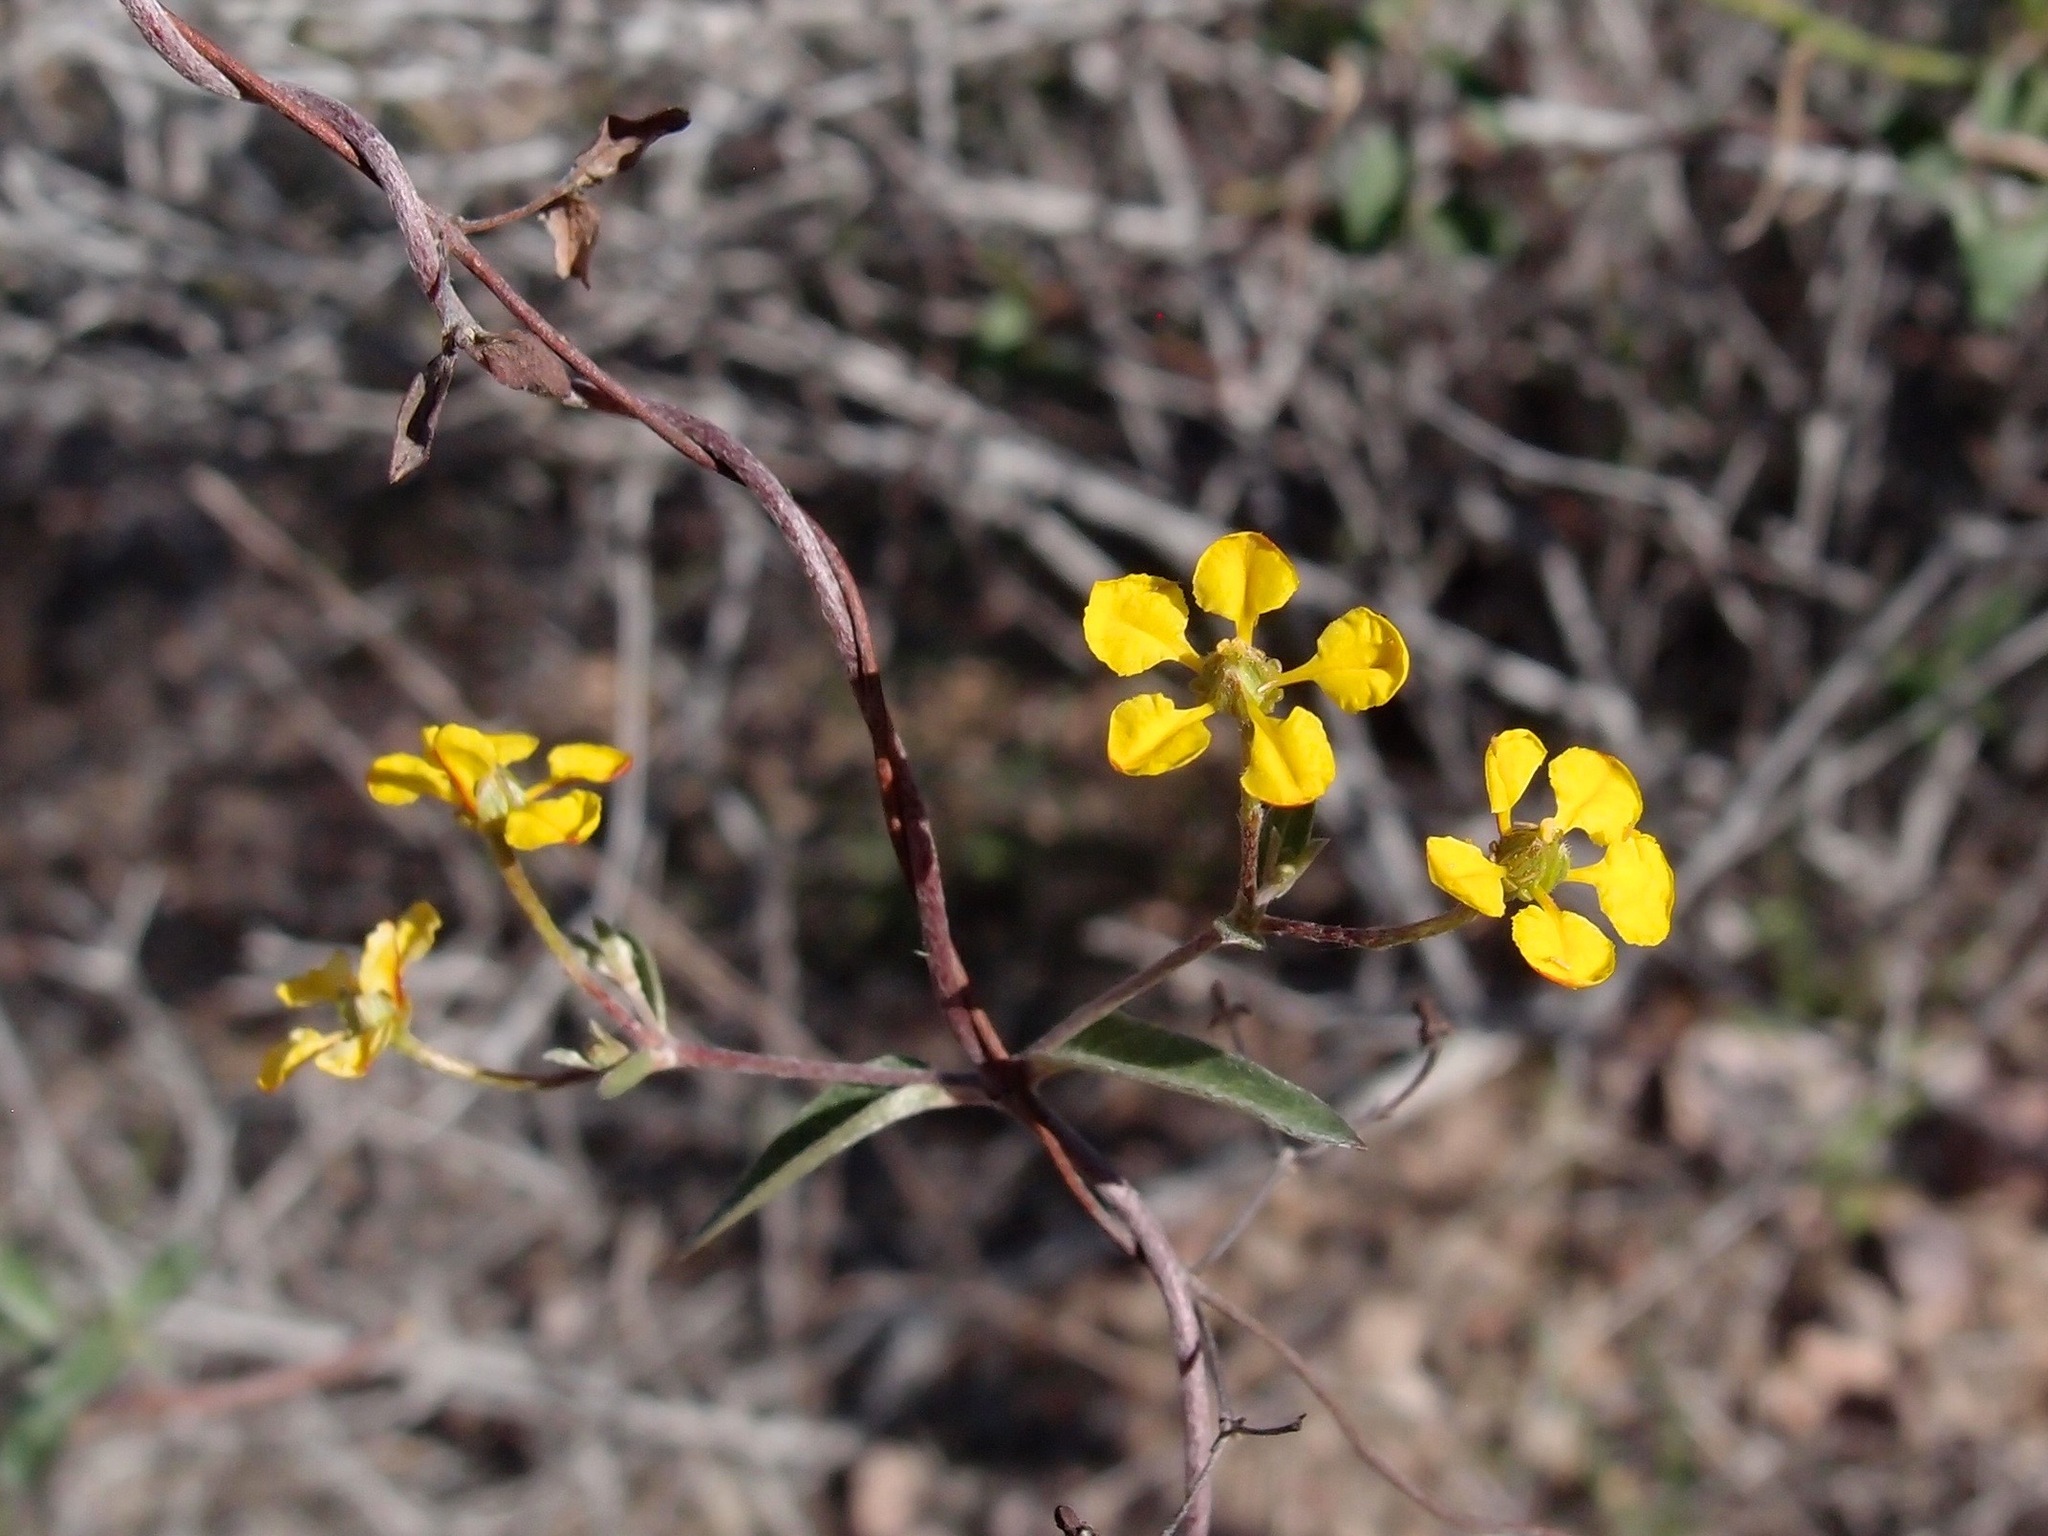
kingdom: Plantae
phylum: Tracheophyta
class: Magnoliopsida
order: Malpighiales
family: Malpighiaceae
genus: Cottsia
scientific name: Cottsia gracilis
